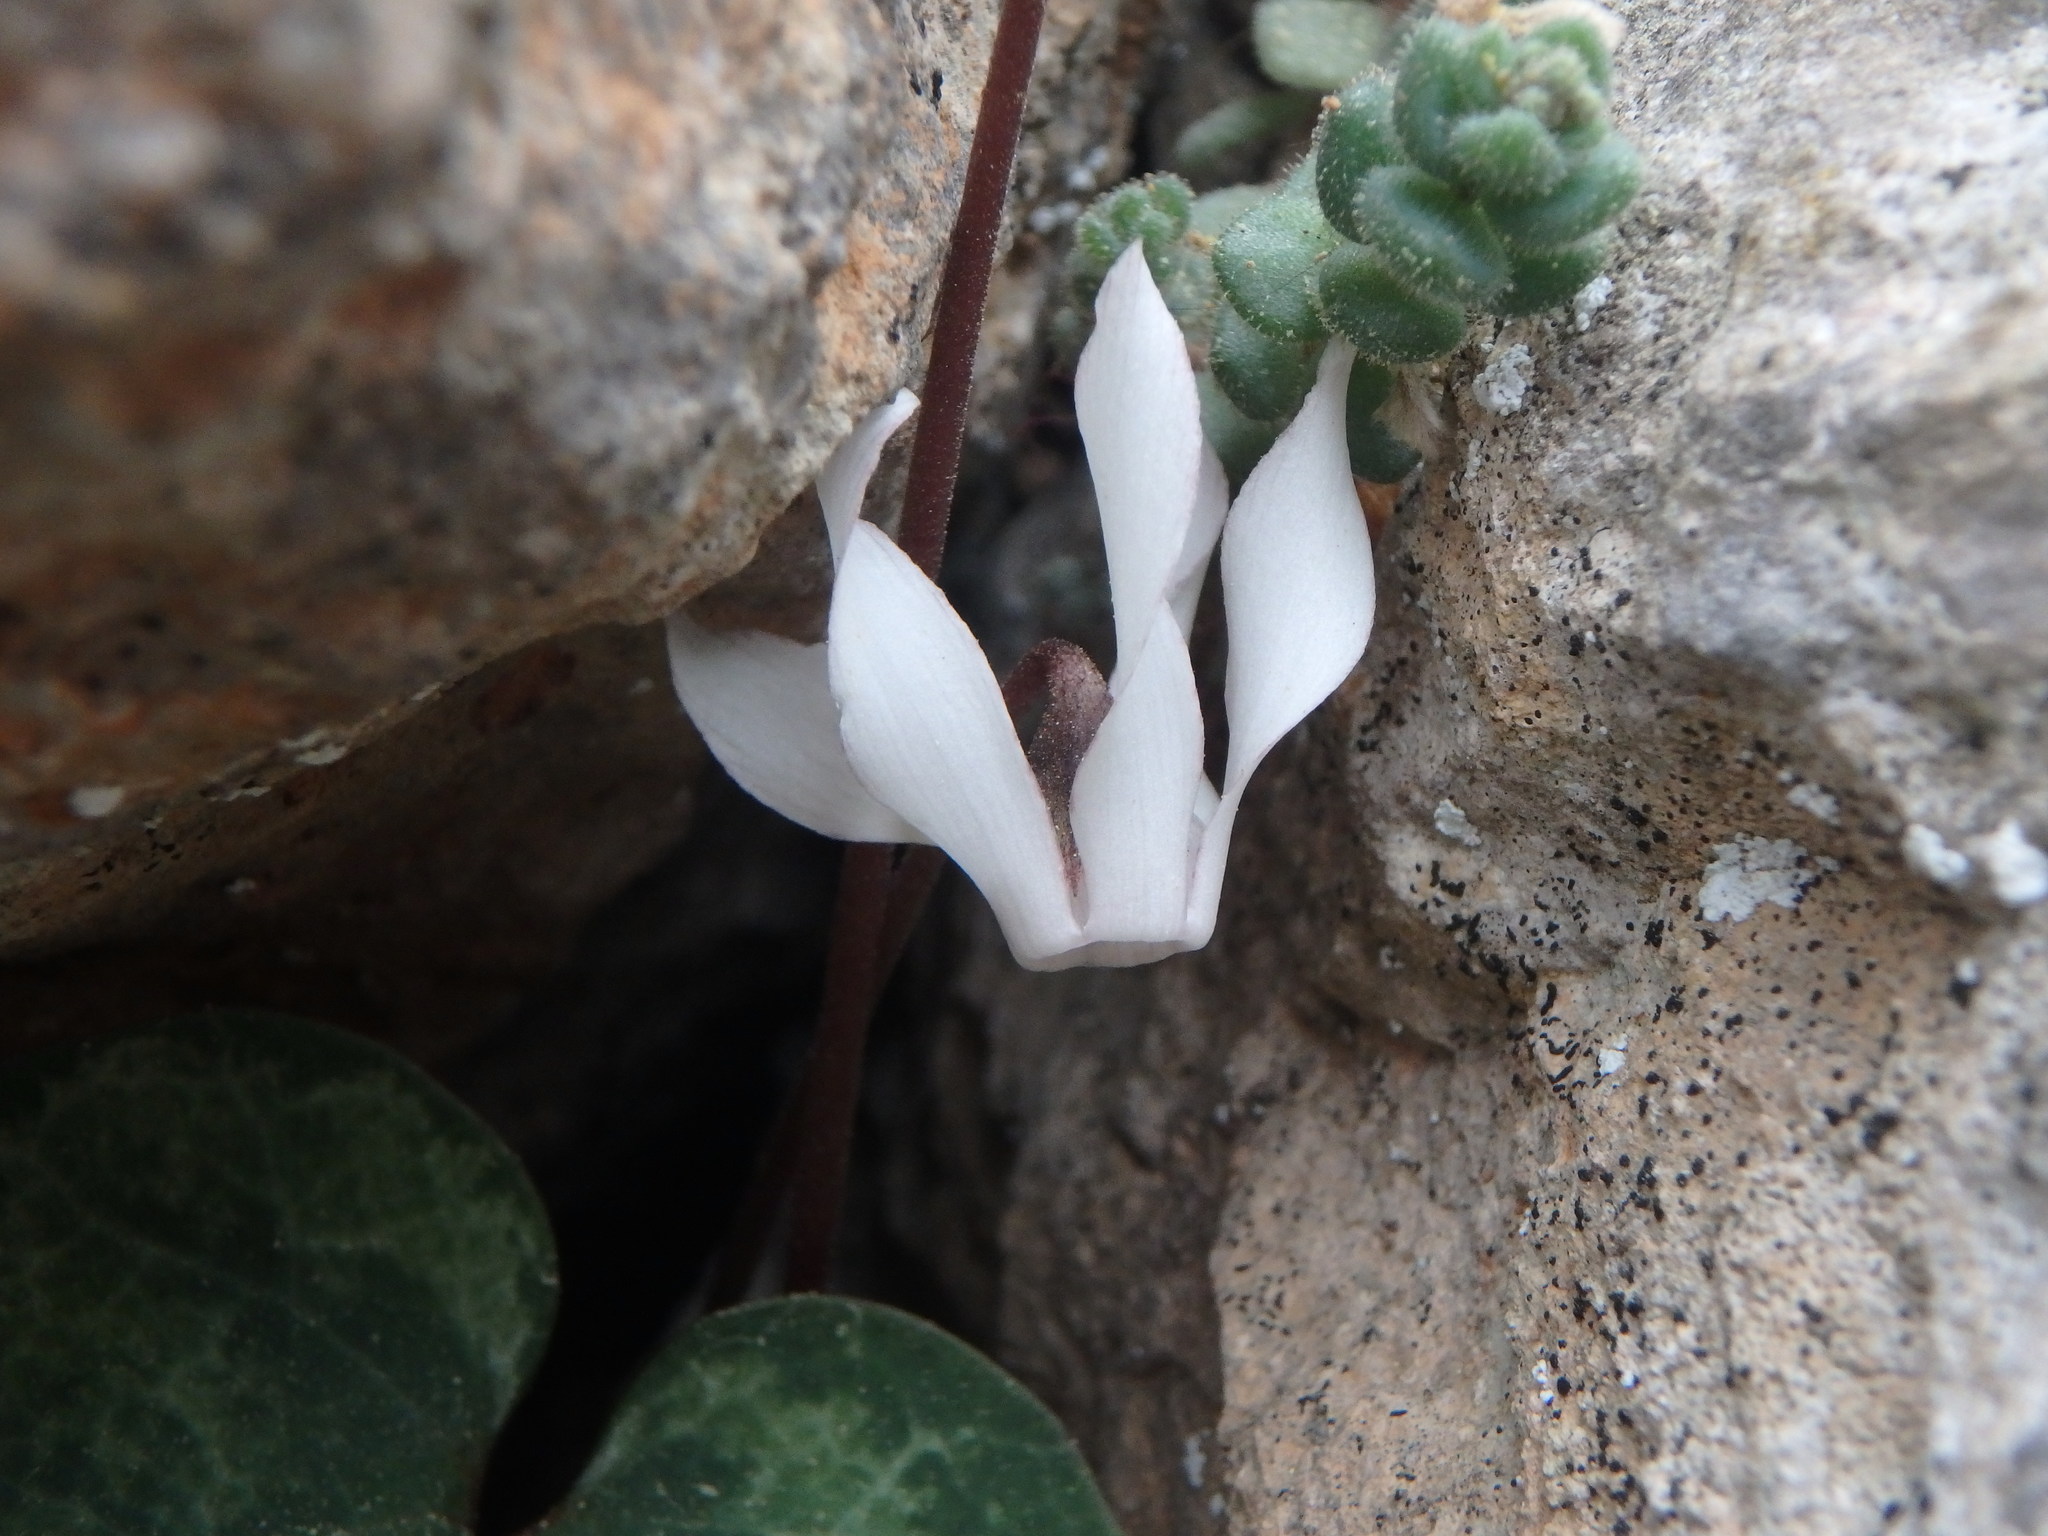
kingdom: Plantae
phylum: Tracheophyta
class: Magnoliopsida
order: Ericales
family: Primulaceae
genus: Cyclamen
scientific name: Cyclamen balearicum
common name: Majorca cyclamen
